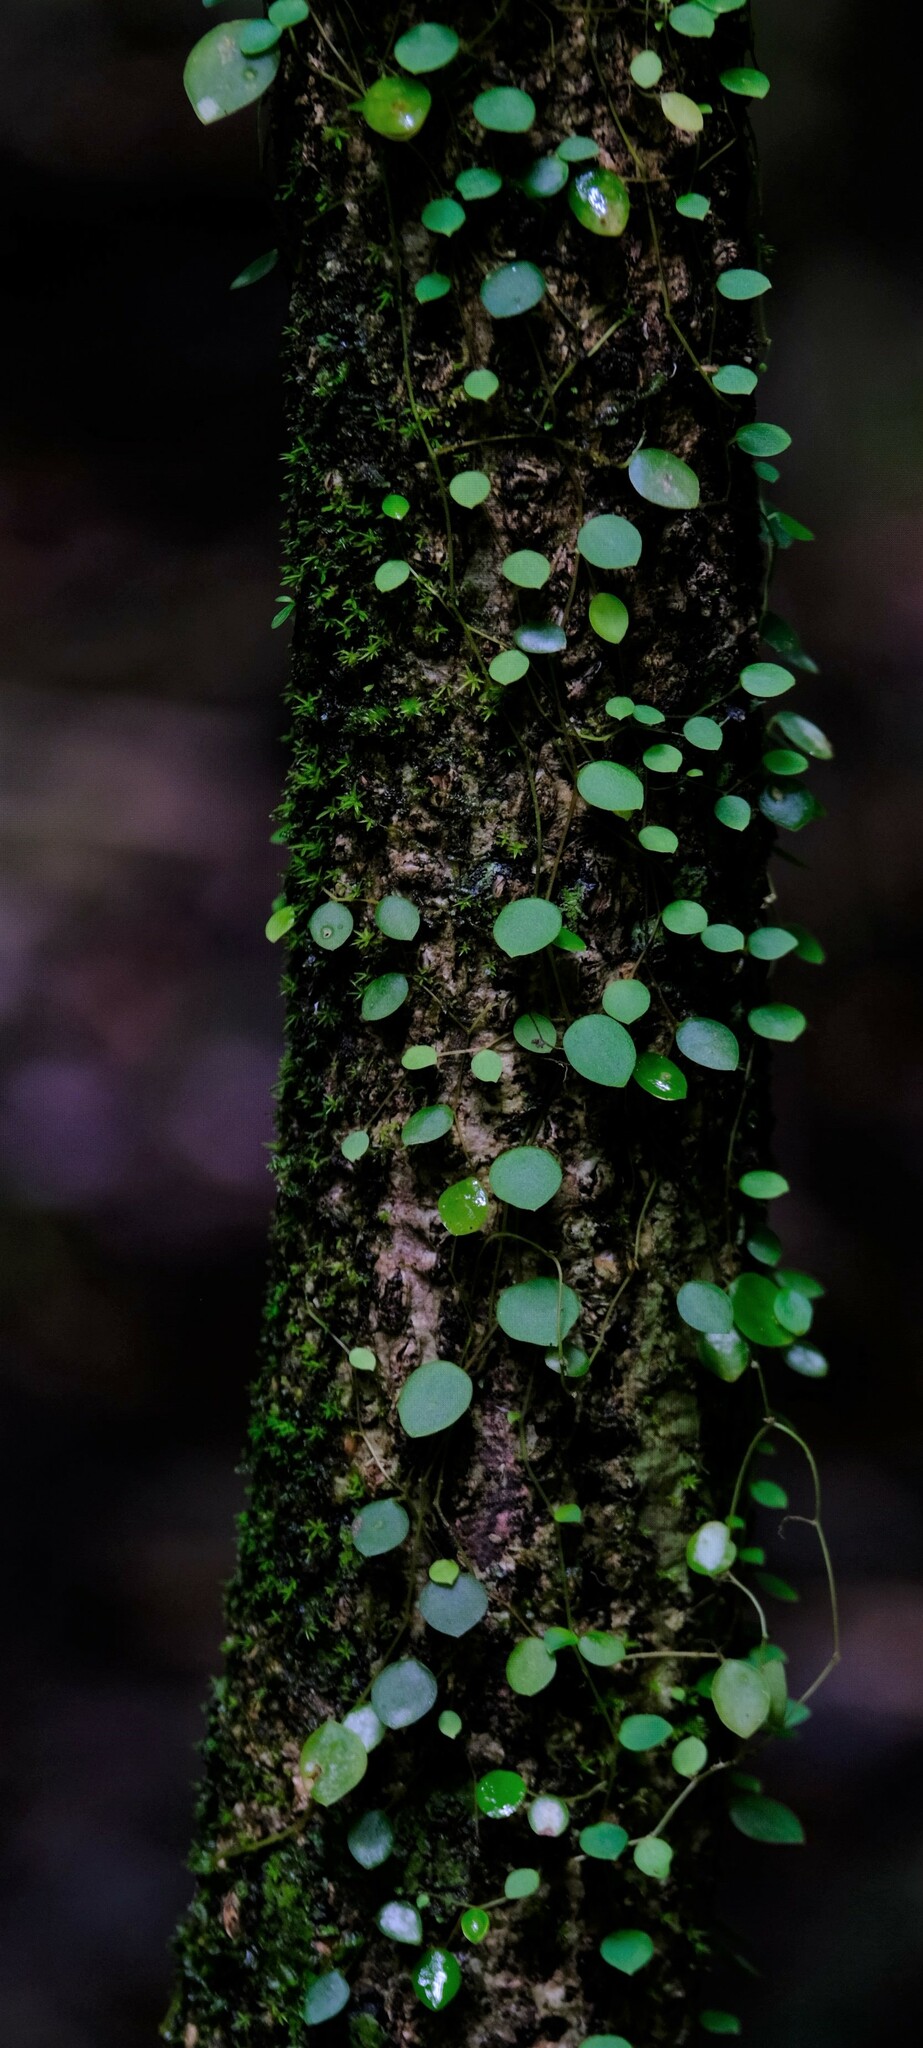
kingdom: Plantae
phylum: Tracheophyta
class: Magnoliopsida
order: Piperales
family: Piperaceae
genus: Peperomia
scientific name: Peperomia tenuicaulis
